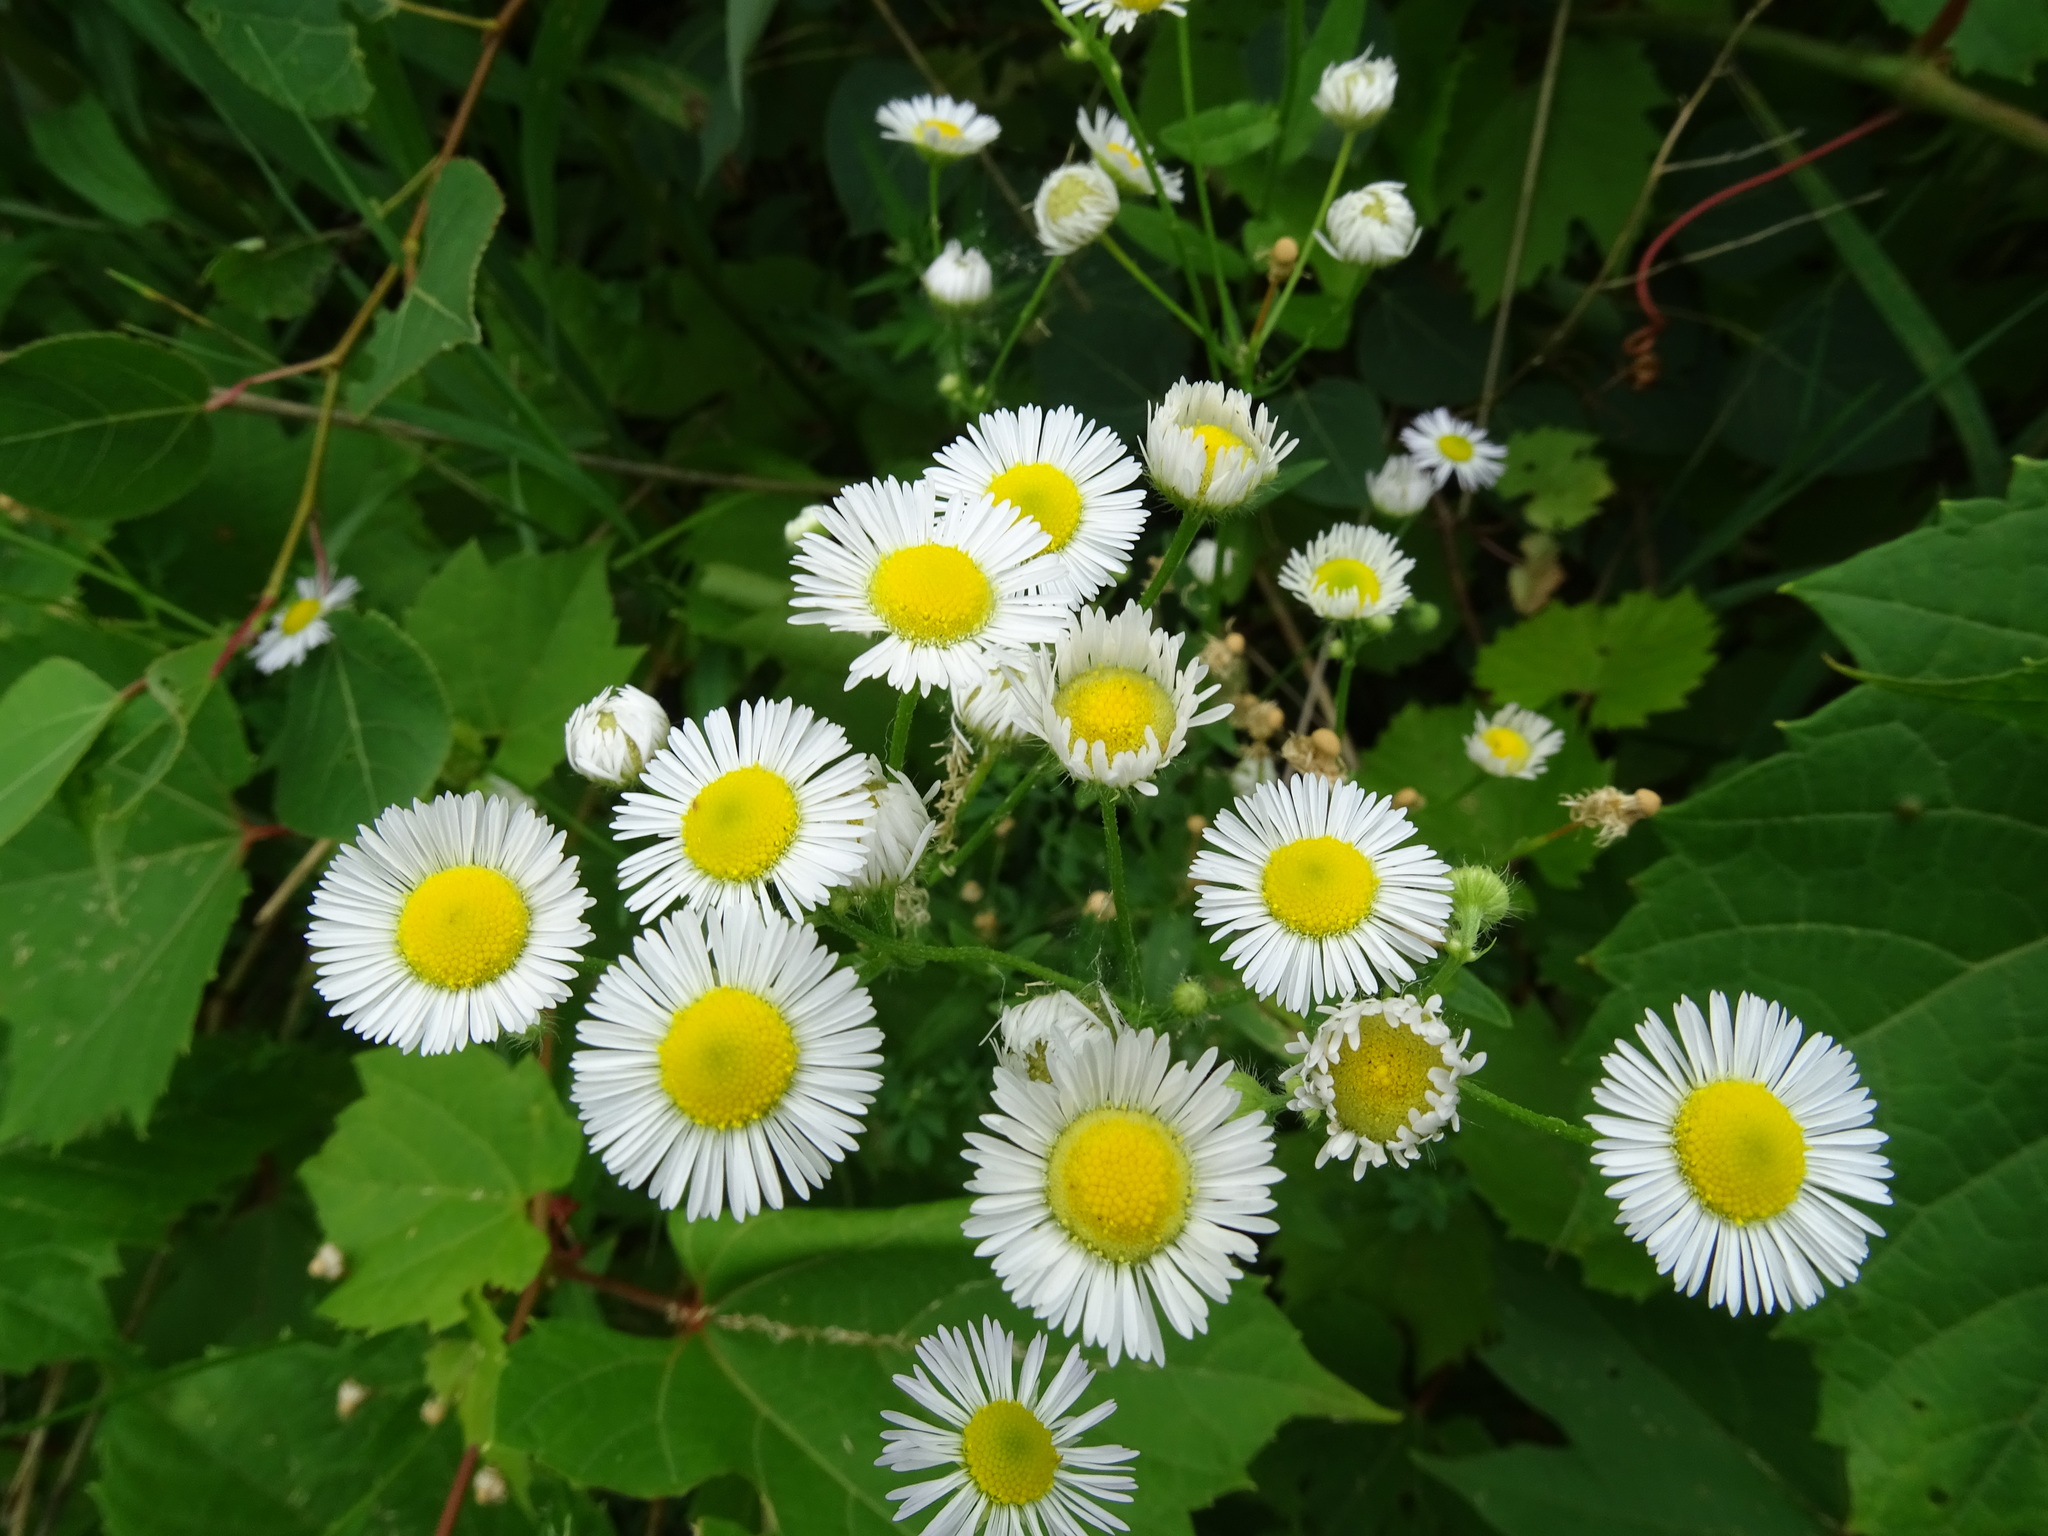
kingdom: Plantae
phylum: Tracheophyta
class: Magnoliopsida
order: Asterales
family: Asteraceae
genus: Erigeron
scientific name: Erigeron annuus
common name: Tall fleabane
